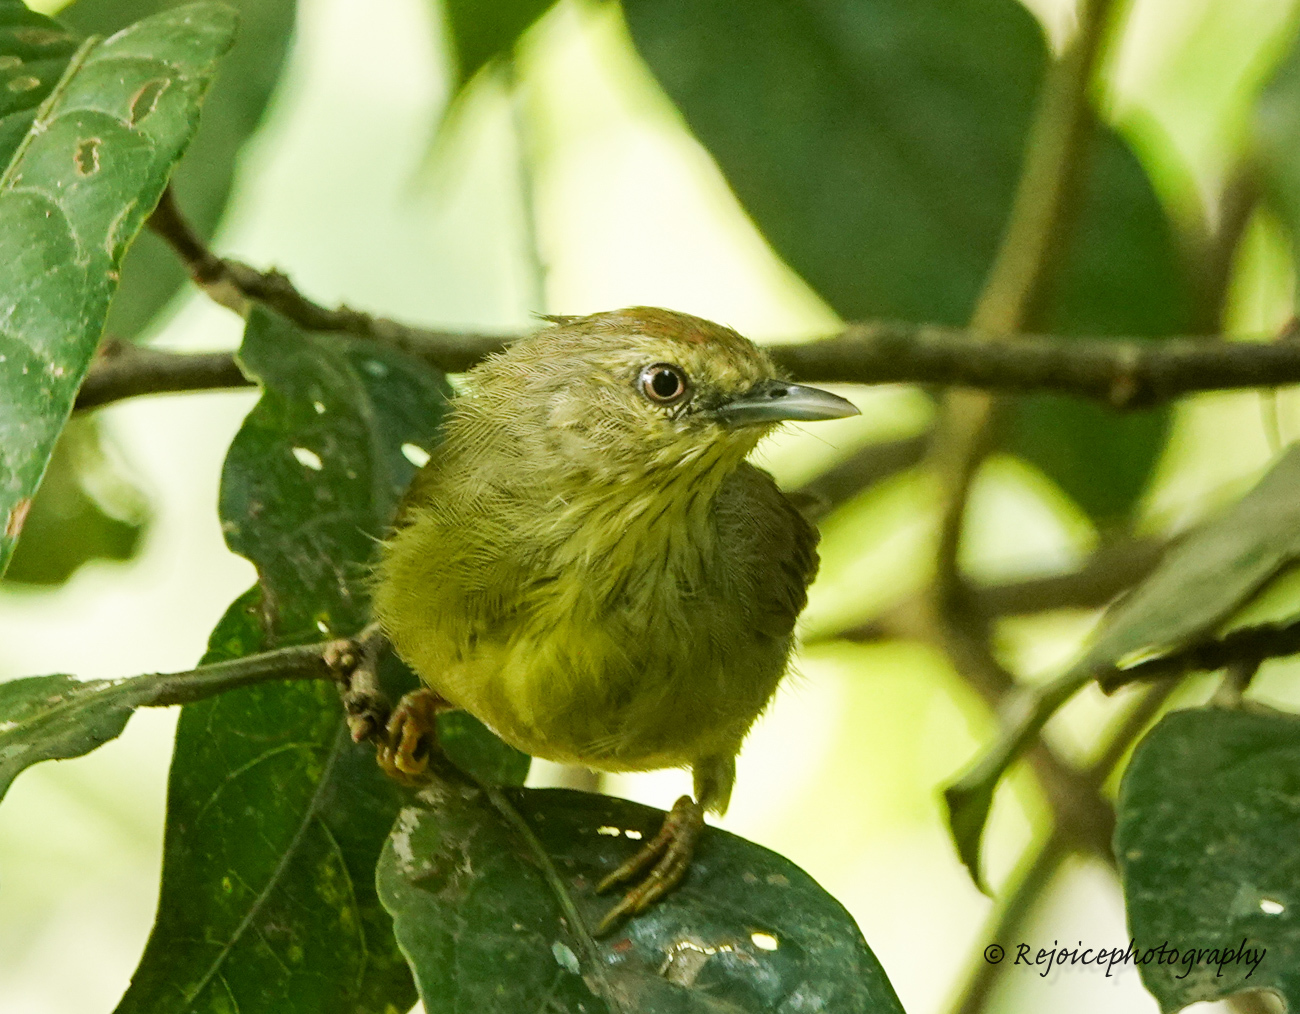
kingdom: Animalia
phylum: Chordata
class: Aves
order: Passeriformes
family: Timaliidae
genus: Macronus
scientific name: Macronus gularis
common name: Striped tit-babbler
